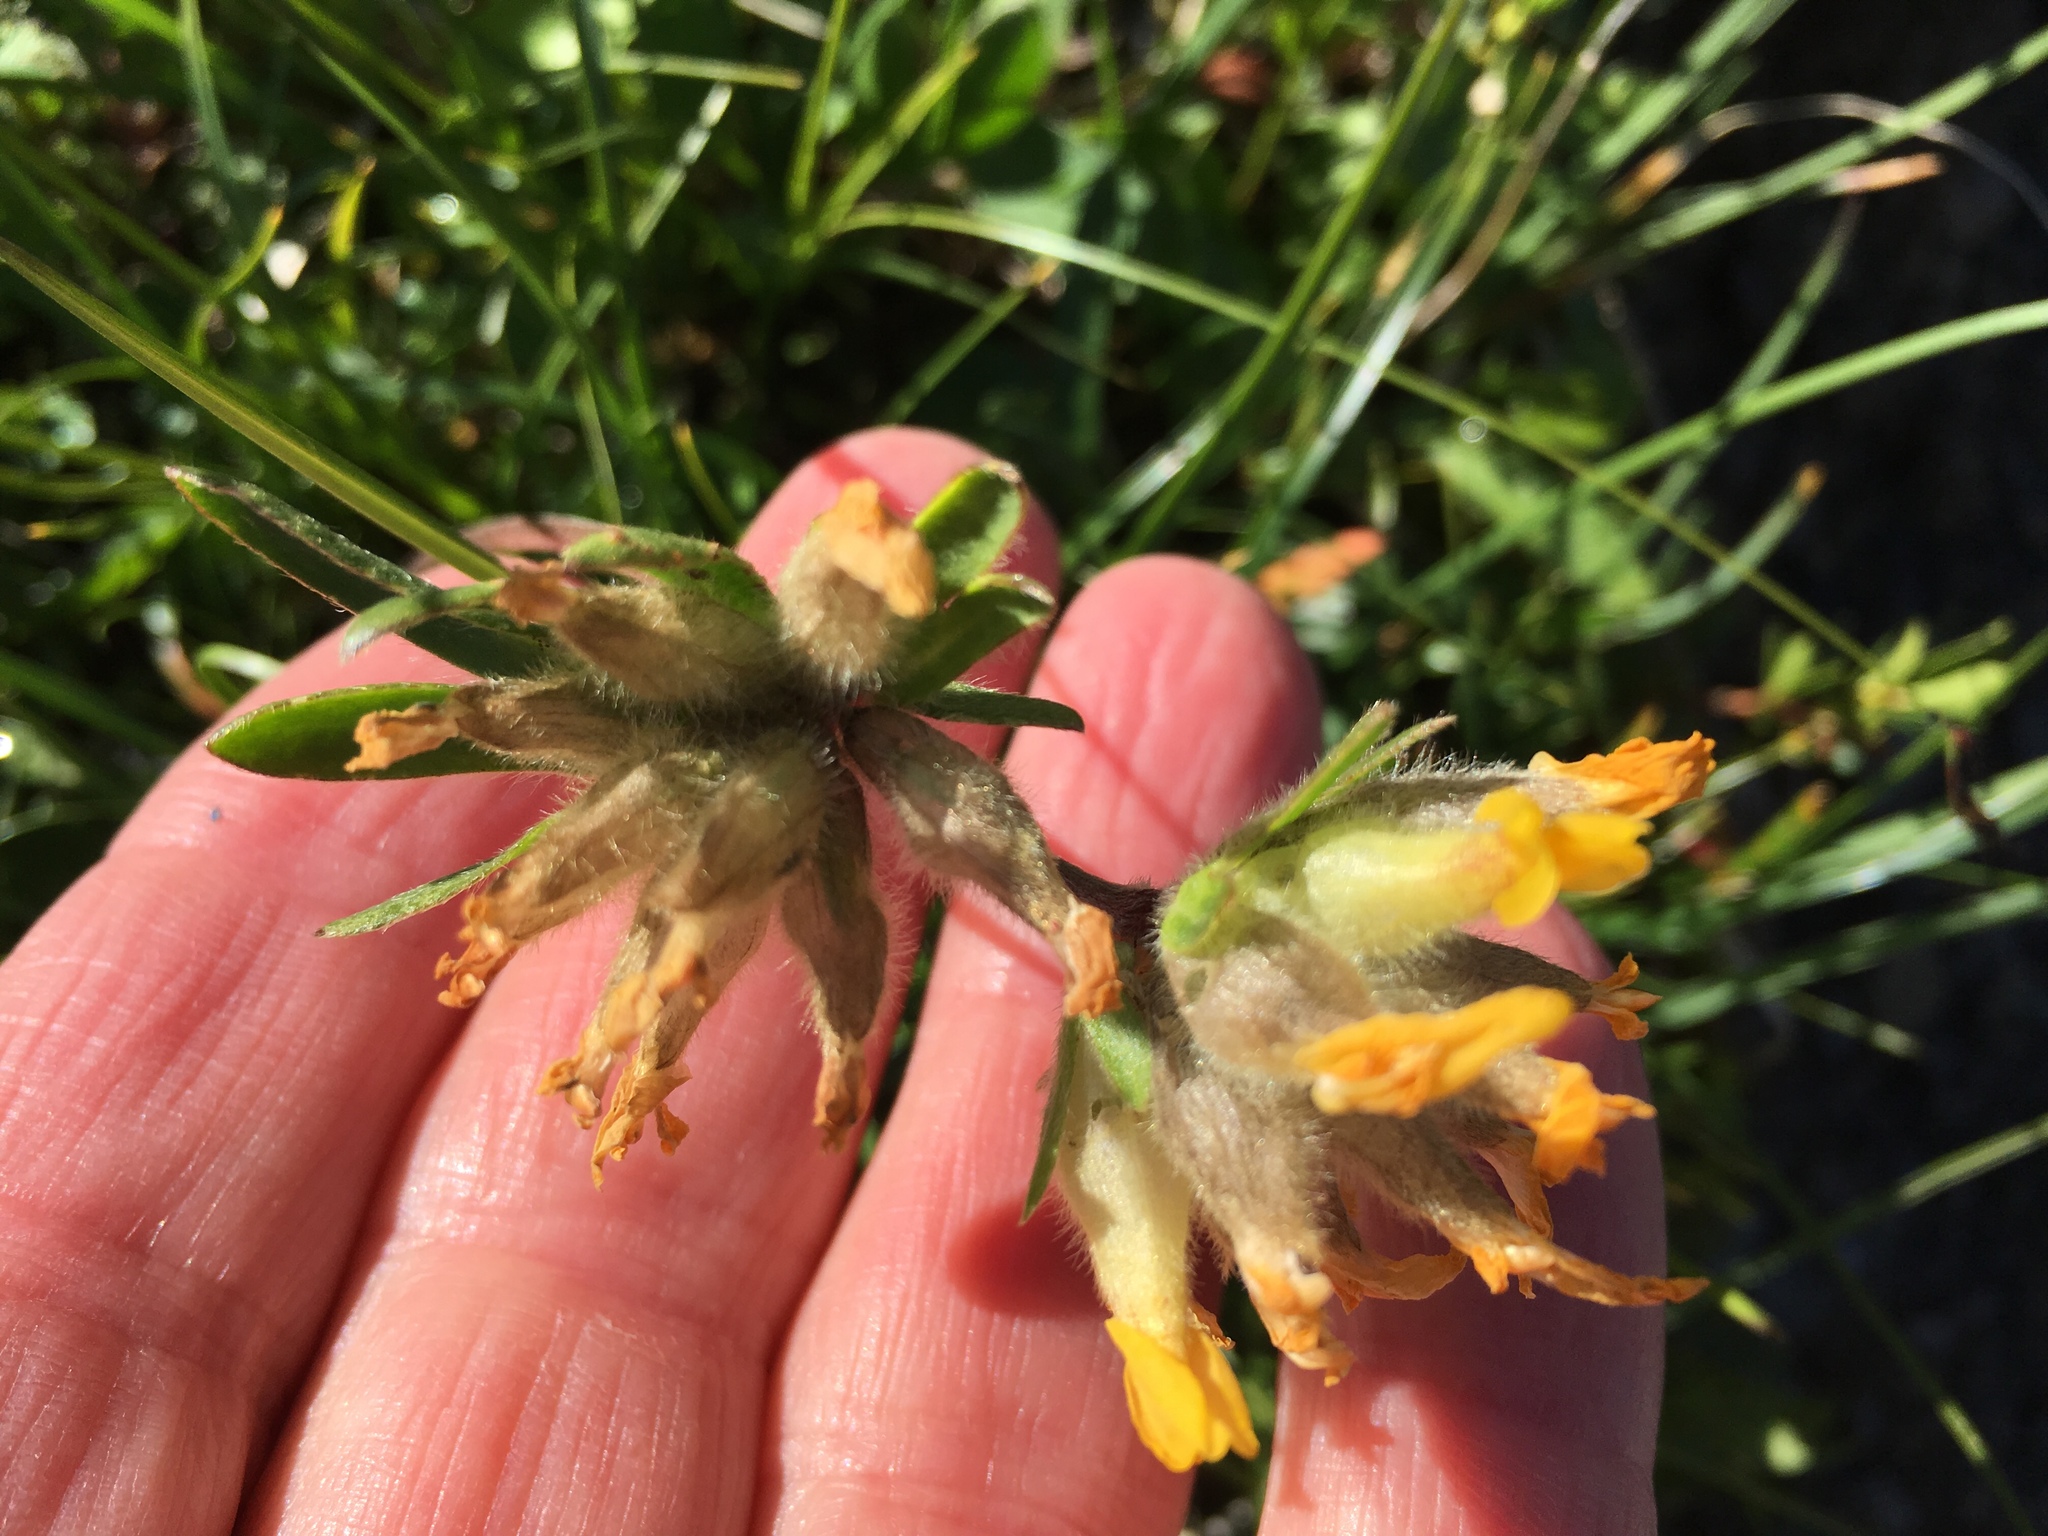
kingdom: Plantae
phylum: Tracheophyta
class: Magnoliopsida
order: Fabales
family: Fabaceae
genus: Anthyllis
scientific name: Anthyllis vulneraria
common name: Kidney vetch
